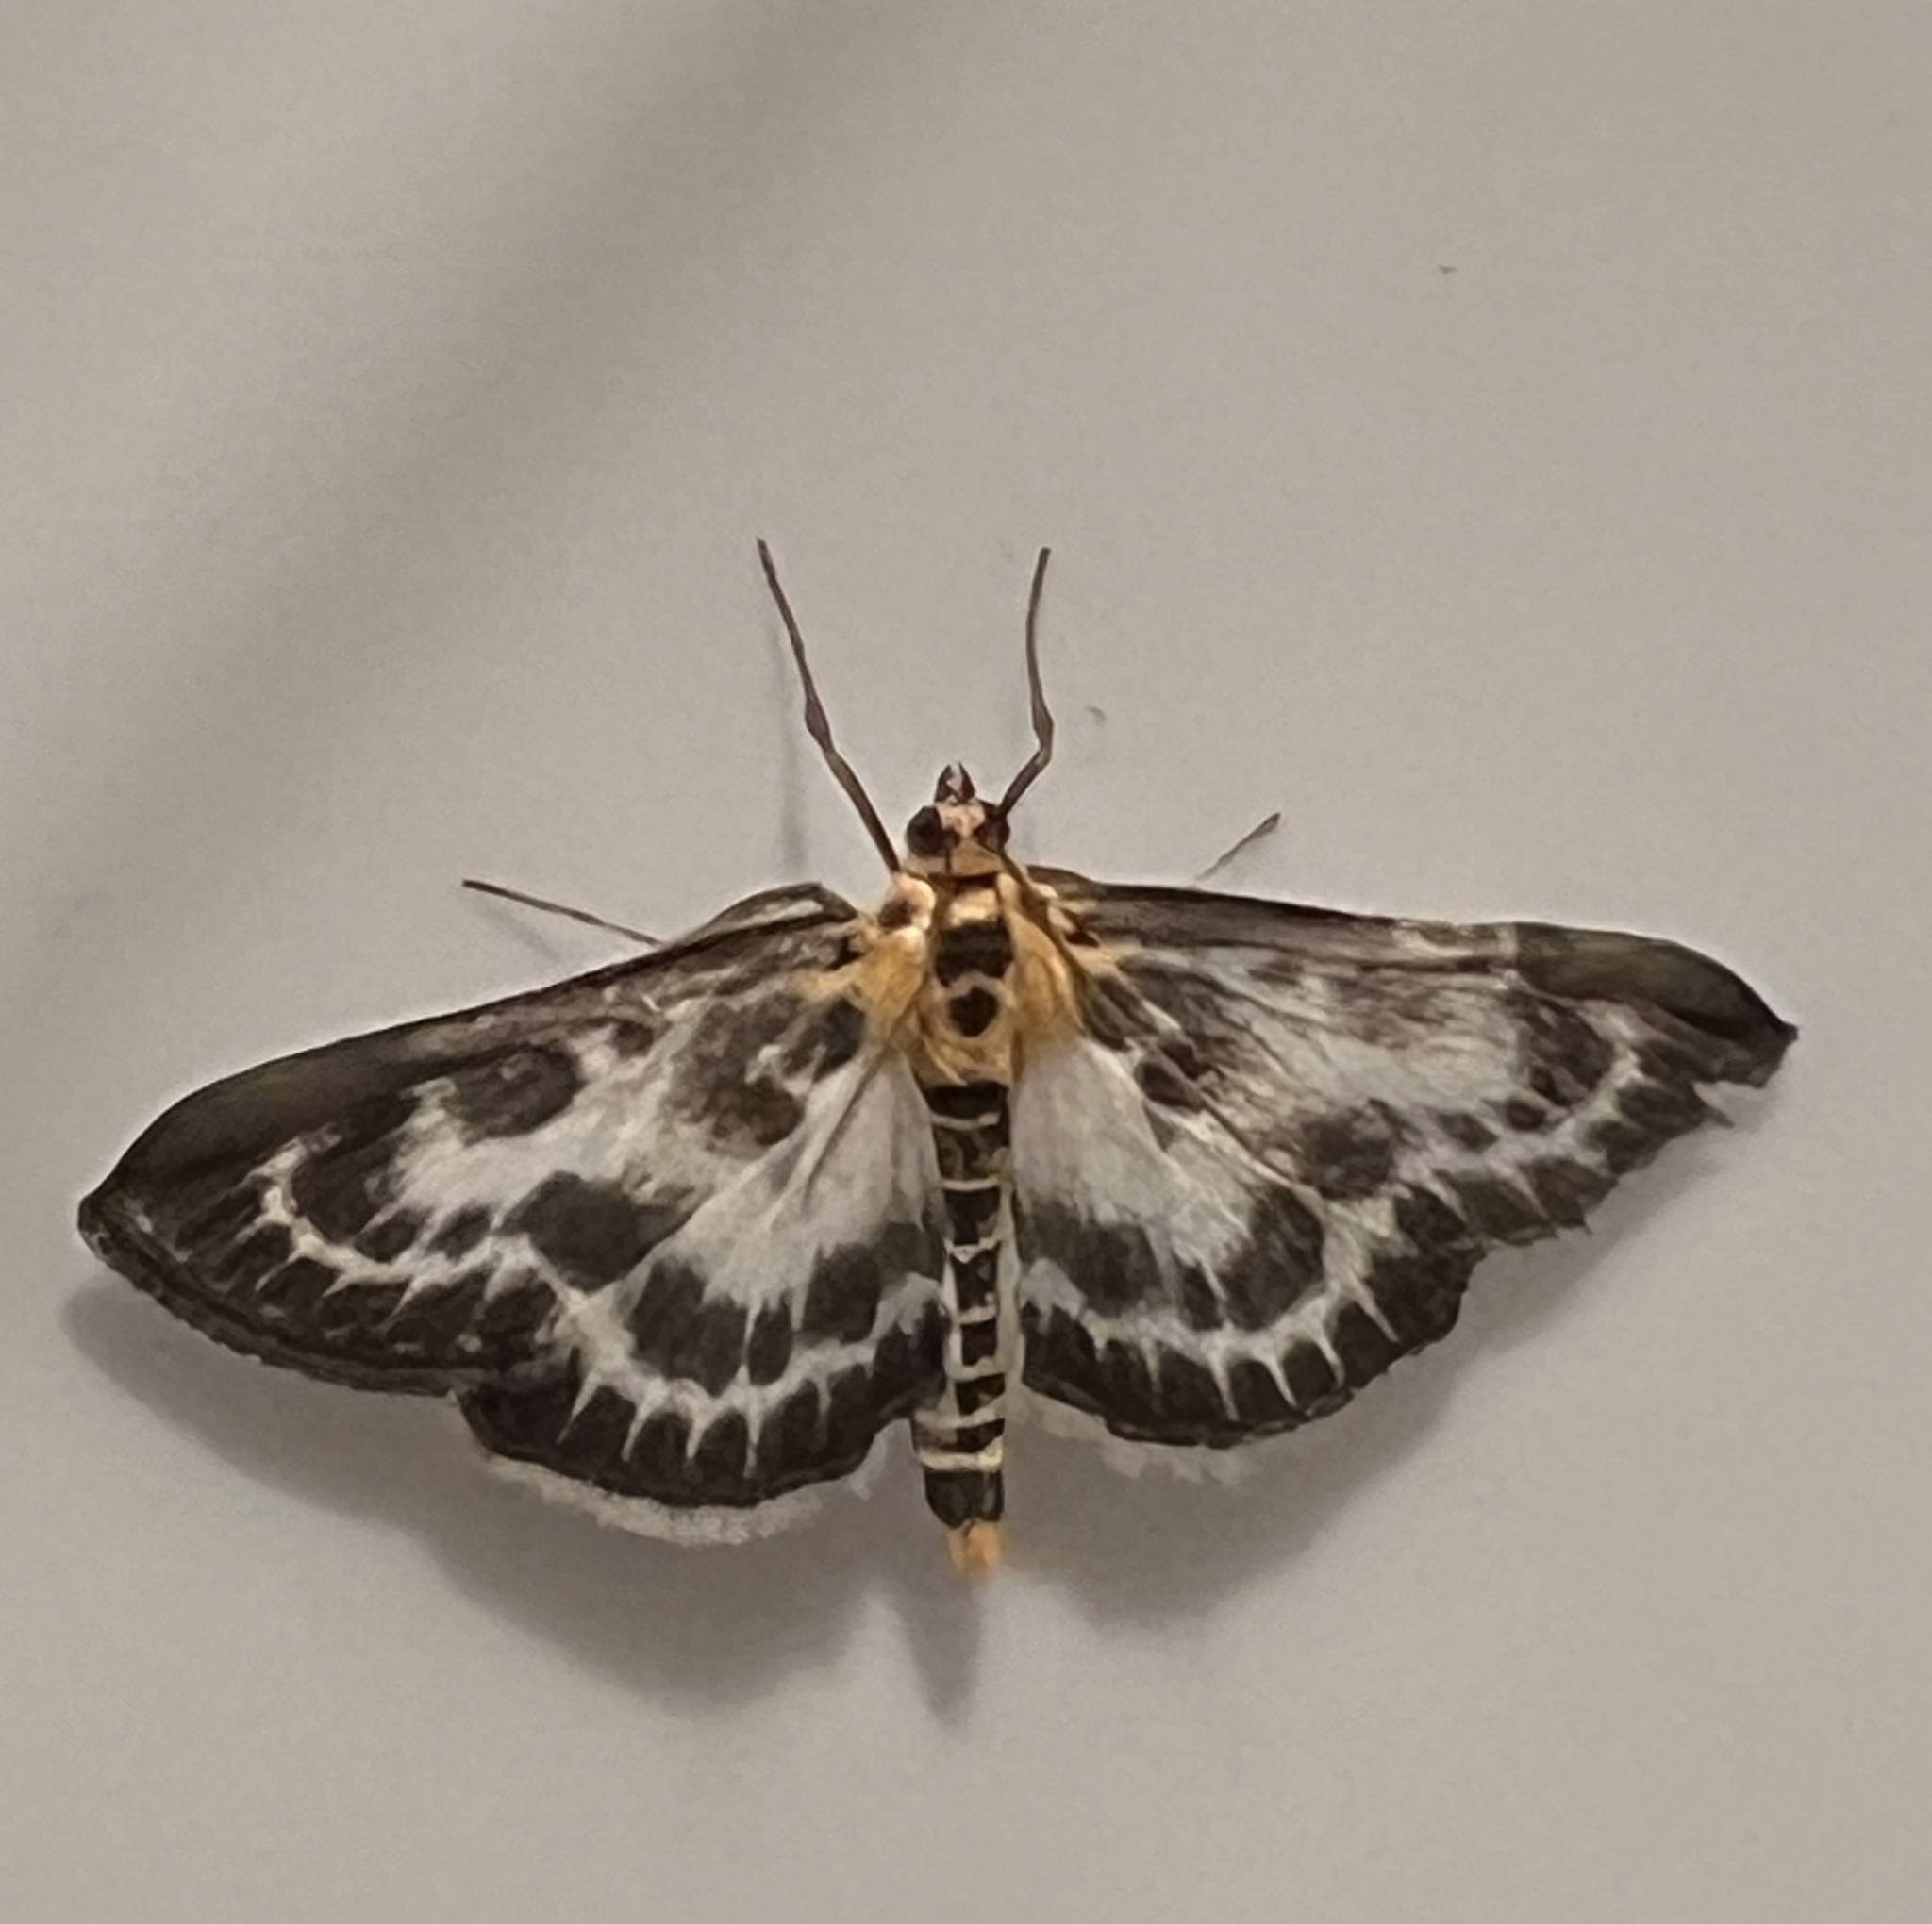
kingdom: Animalia
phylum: Arthropoda
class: Insecta
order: Lepidoptera
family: Crambidae
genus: Anania
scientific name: Anania hortulata
